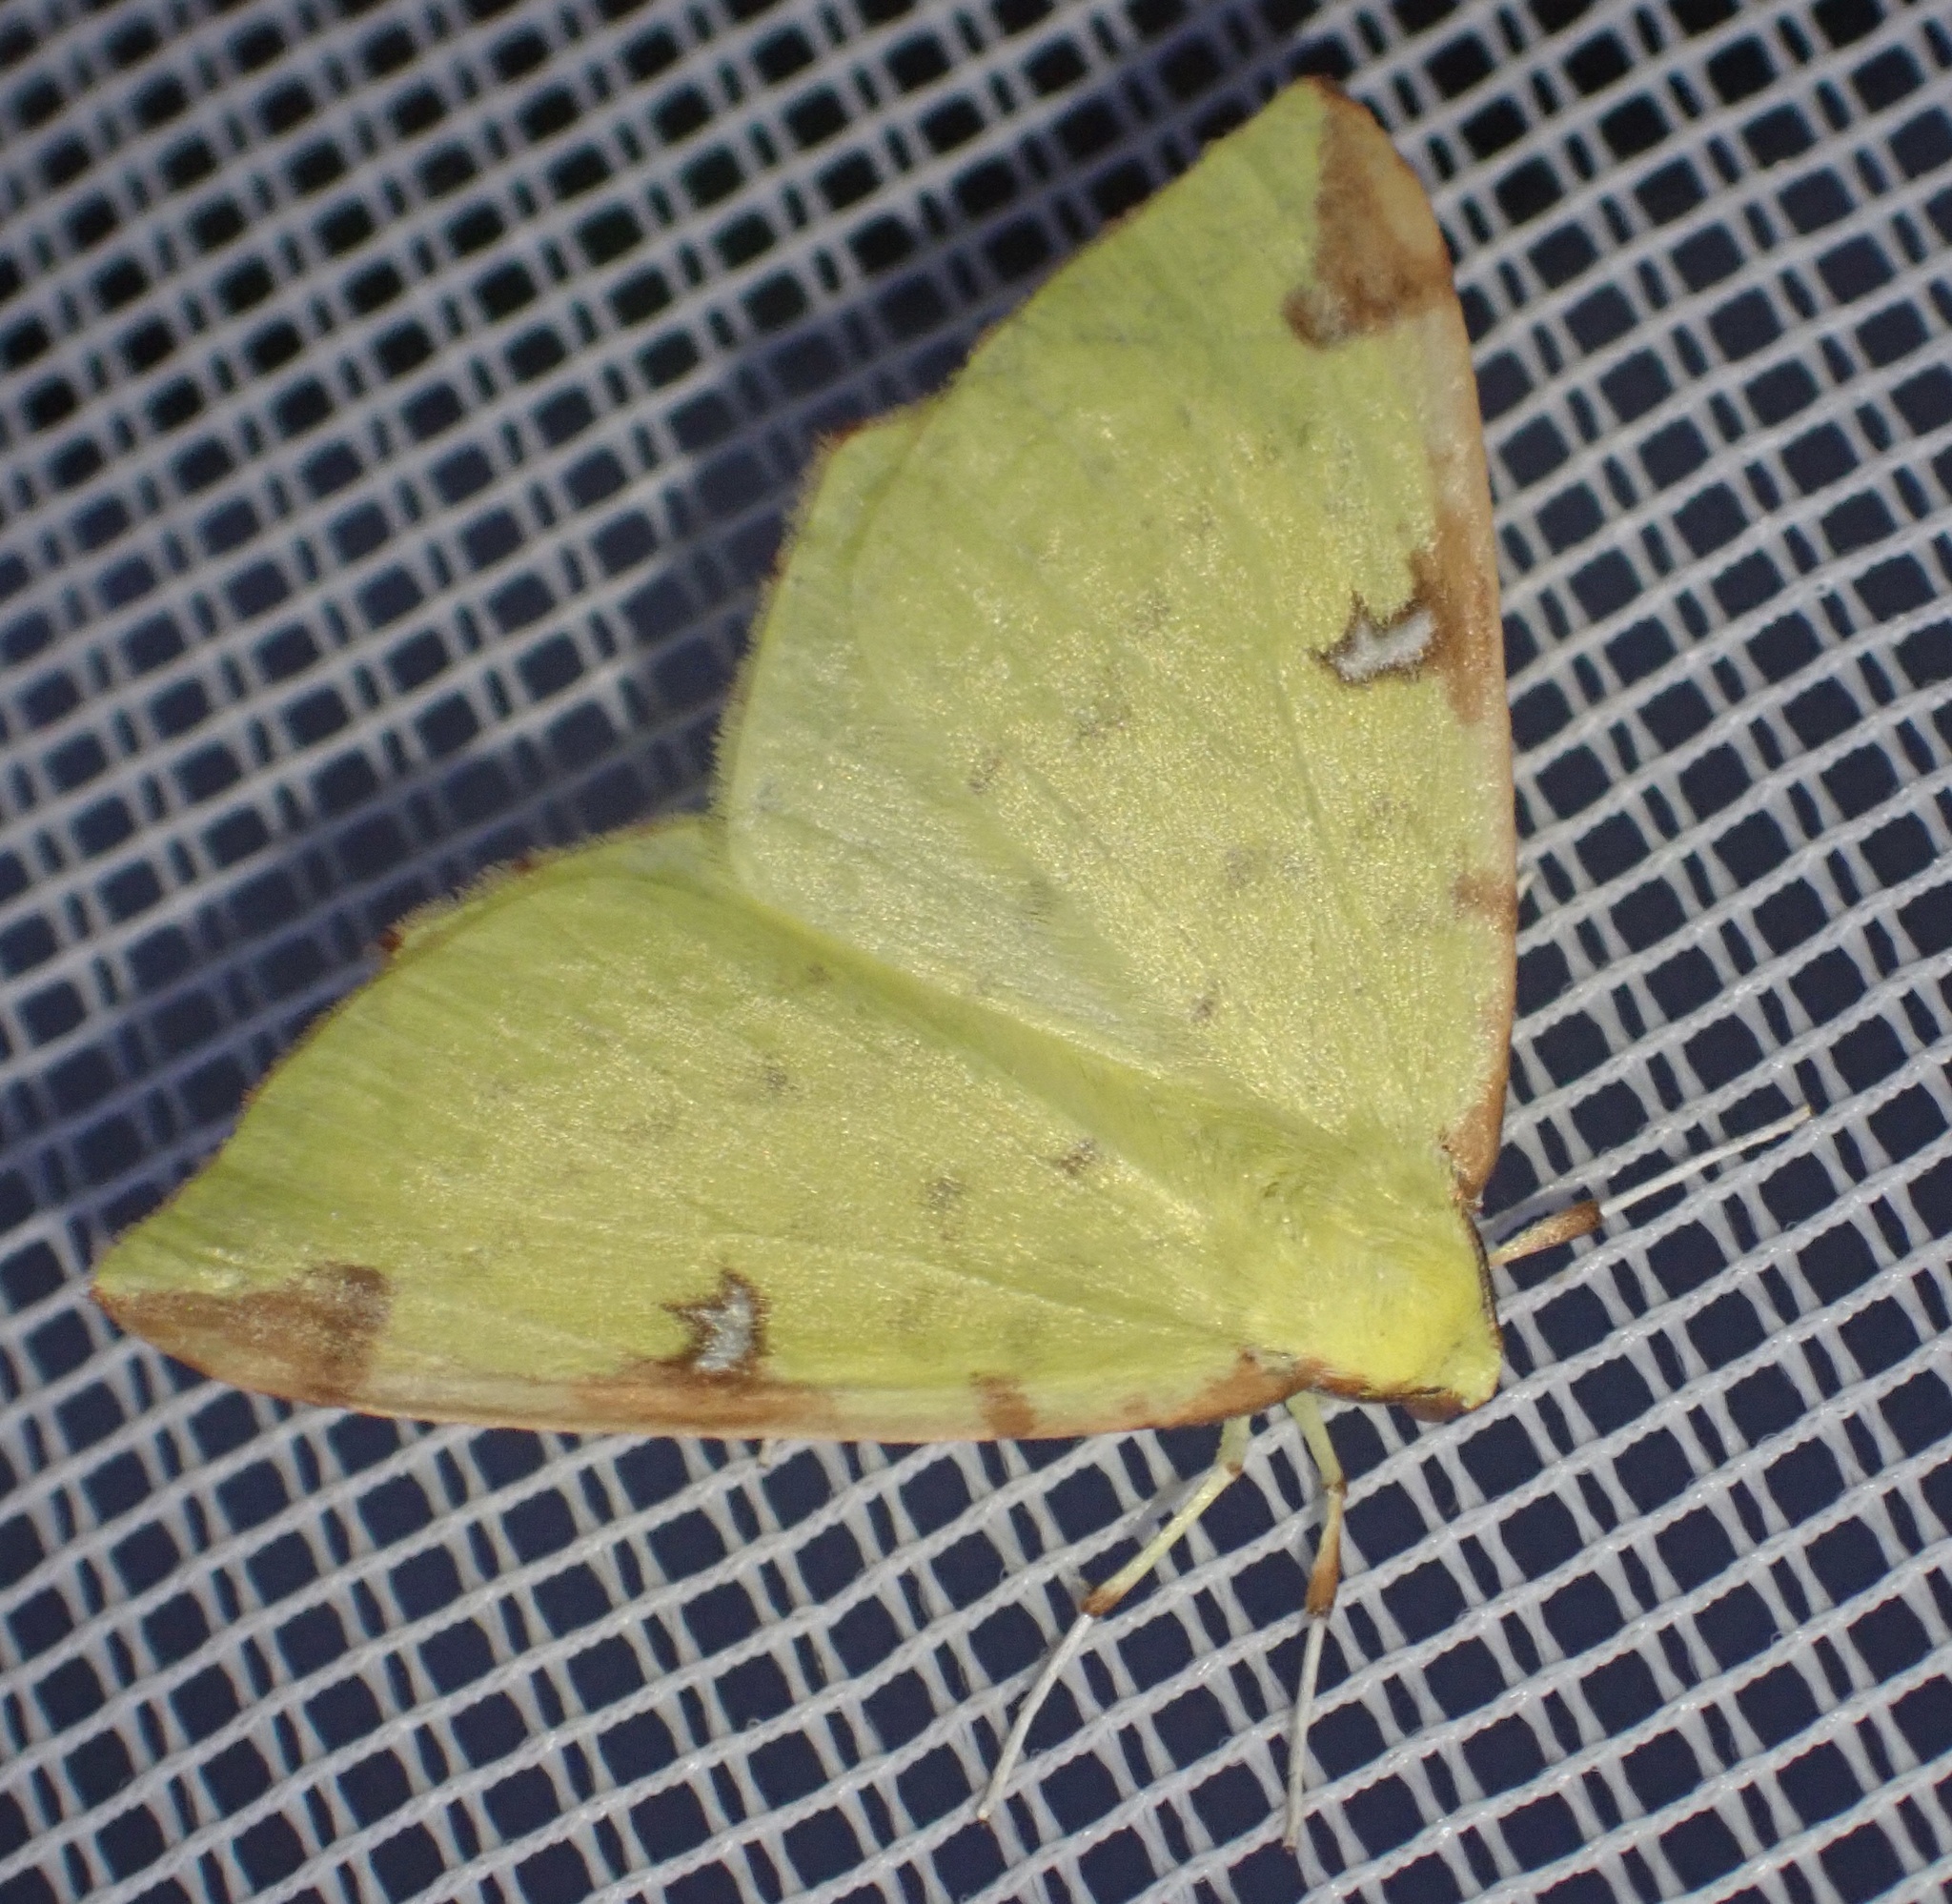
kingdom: Animalia
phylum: Arthropoda
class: Insecta
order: Lepidoptera
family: Geometridae
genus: Opisthograptis
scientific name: Opisthograptis luteolata
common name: Brimstone moth
